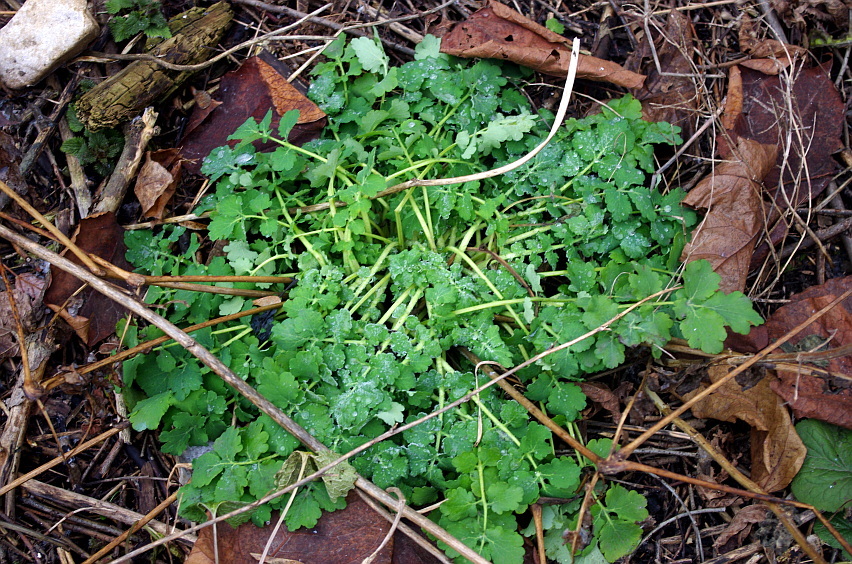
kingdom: Plantae
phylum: Tracheophyta
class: Magnoliopsida
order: Ranunculales
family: Papaveraceae
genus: Chelidonium
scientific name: Chelidonium majus
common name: Greater celandine
